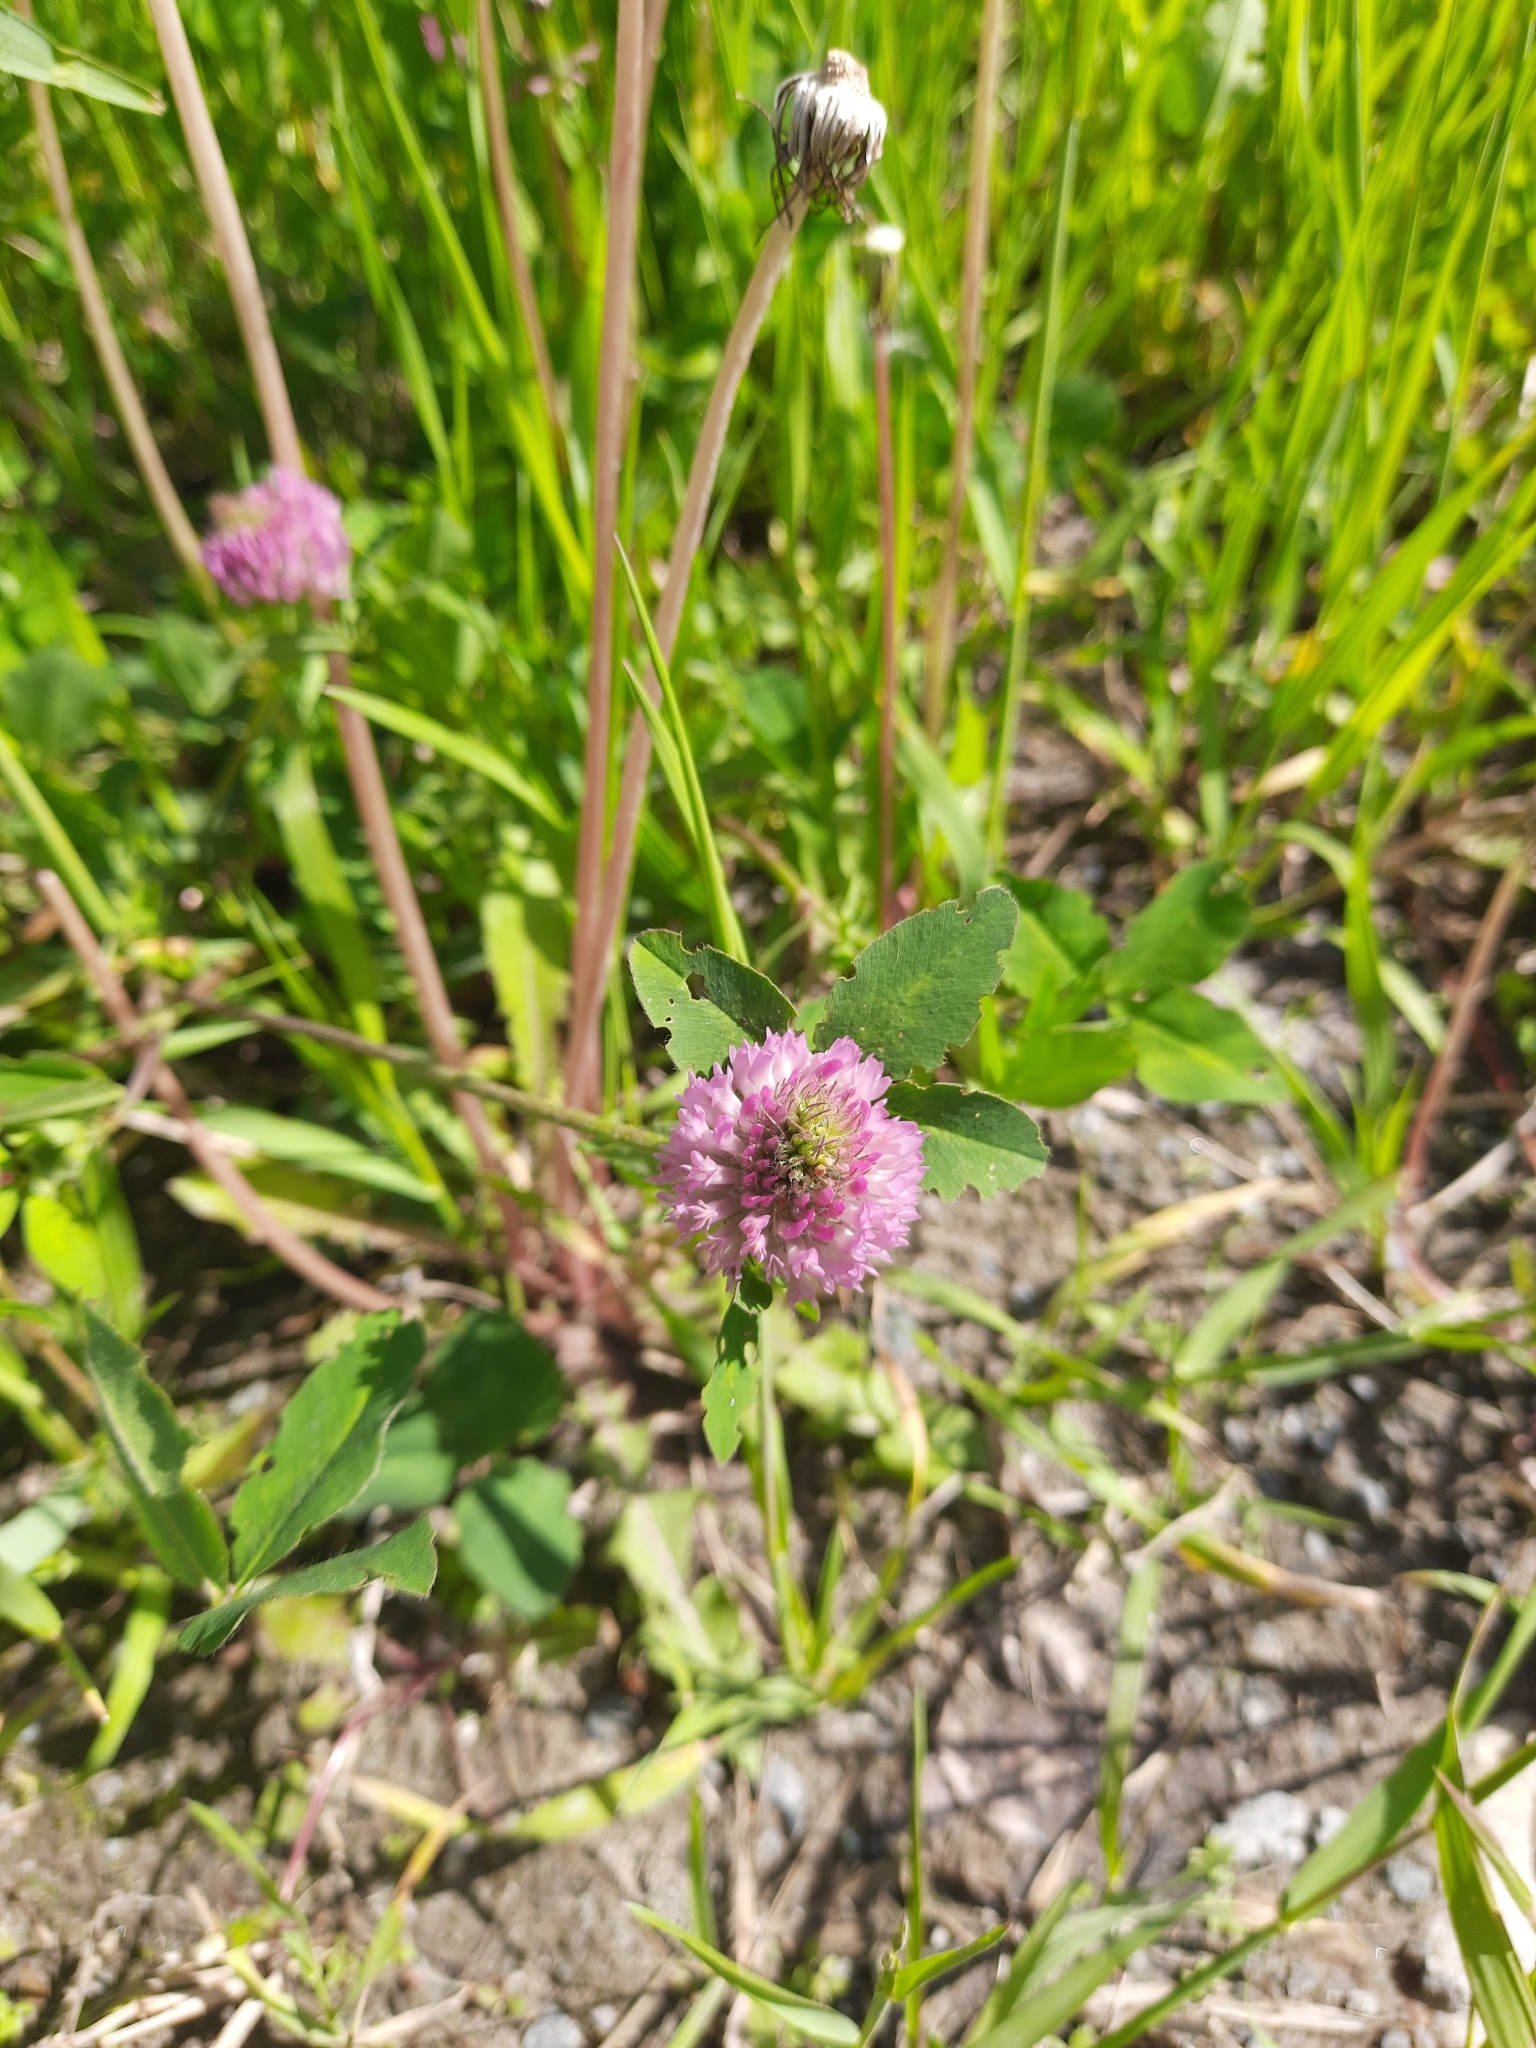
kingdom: Plantae
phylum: Tracheophyta
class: Magnoliopsida
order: Fabales
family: Fabaceae
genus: Trifolium
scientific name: Trifolium pratense
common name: Red clover
